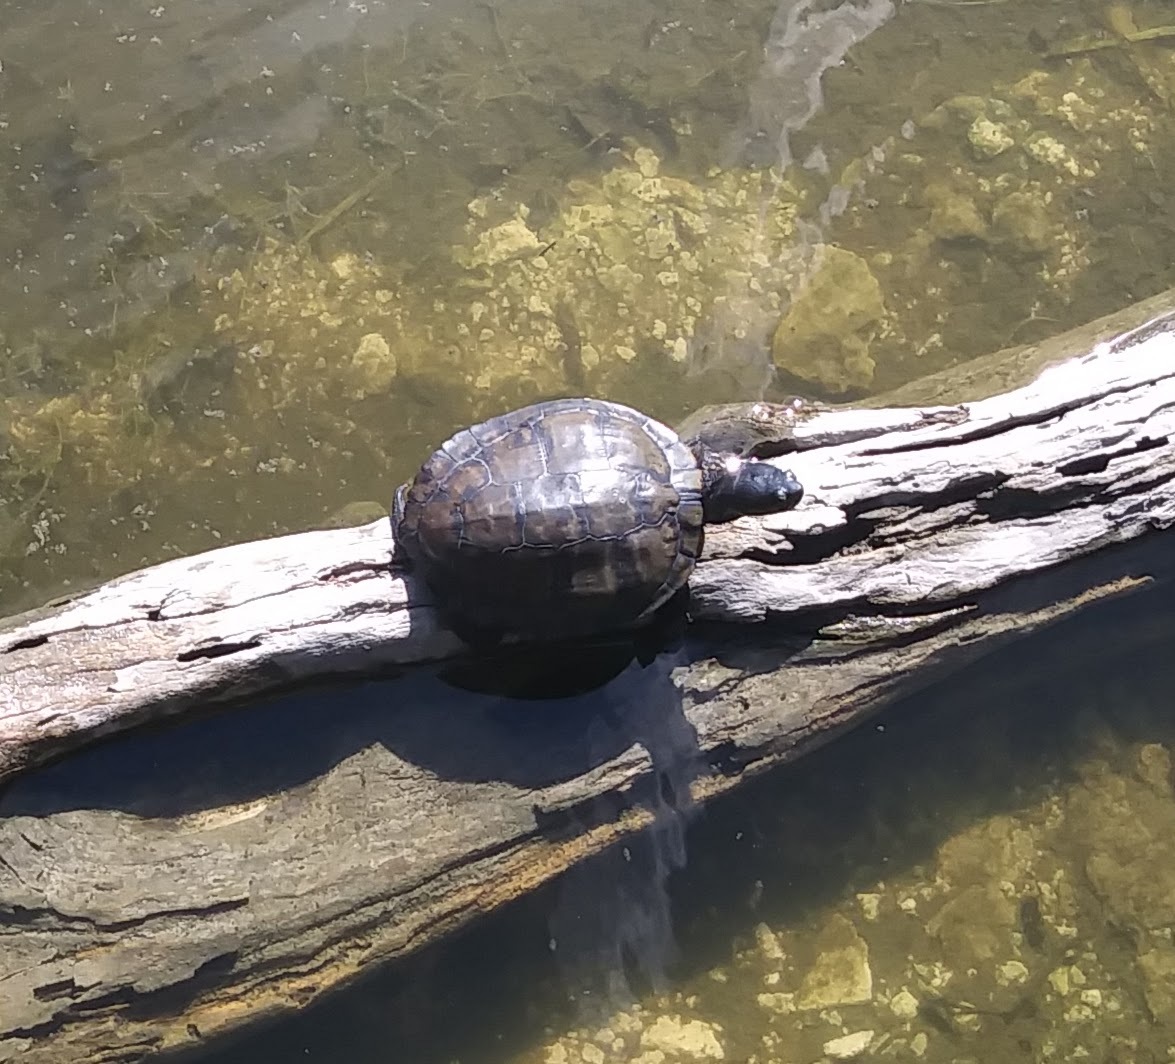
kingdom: Animalia
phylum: Chordata
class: Testudines
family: Emydidae
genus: Trachemys
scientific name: Trachemys scripta
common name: Slider
